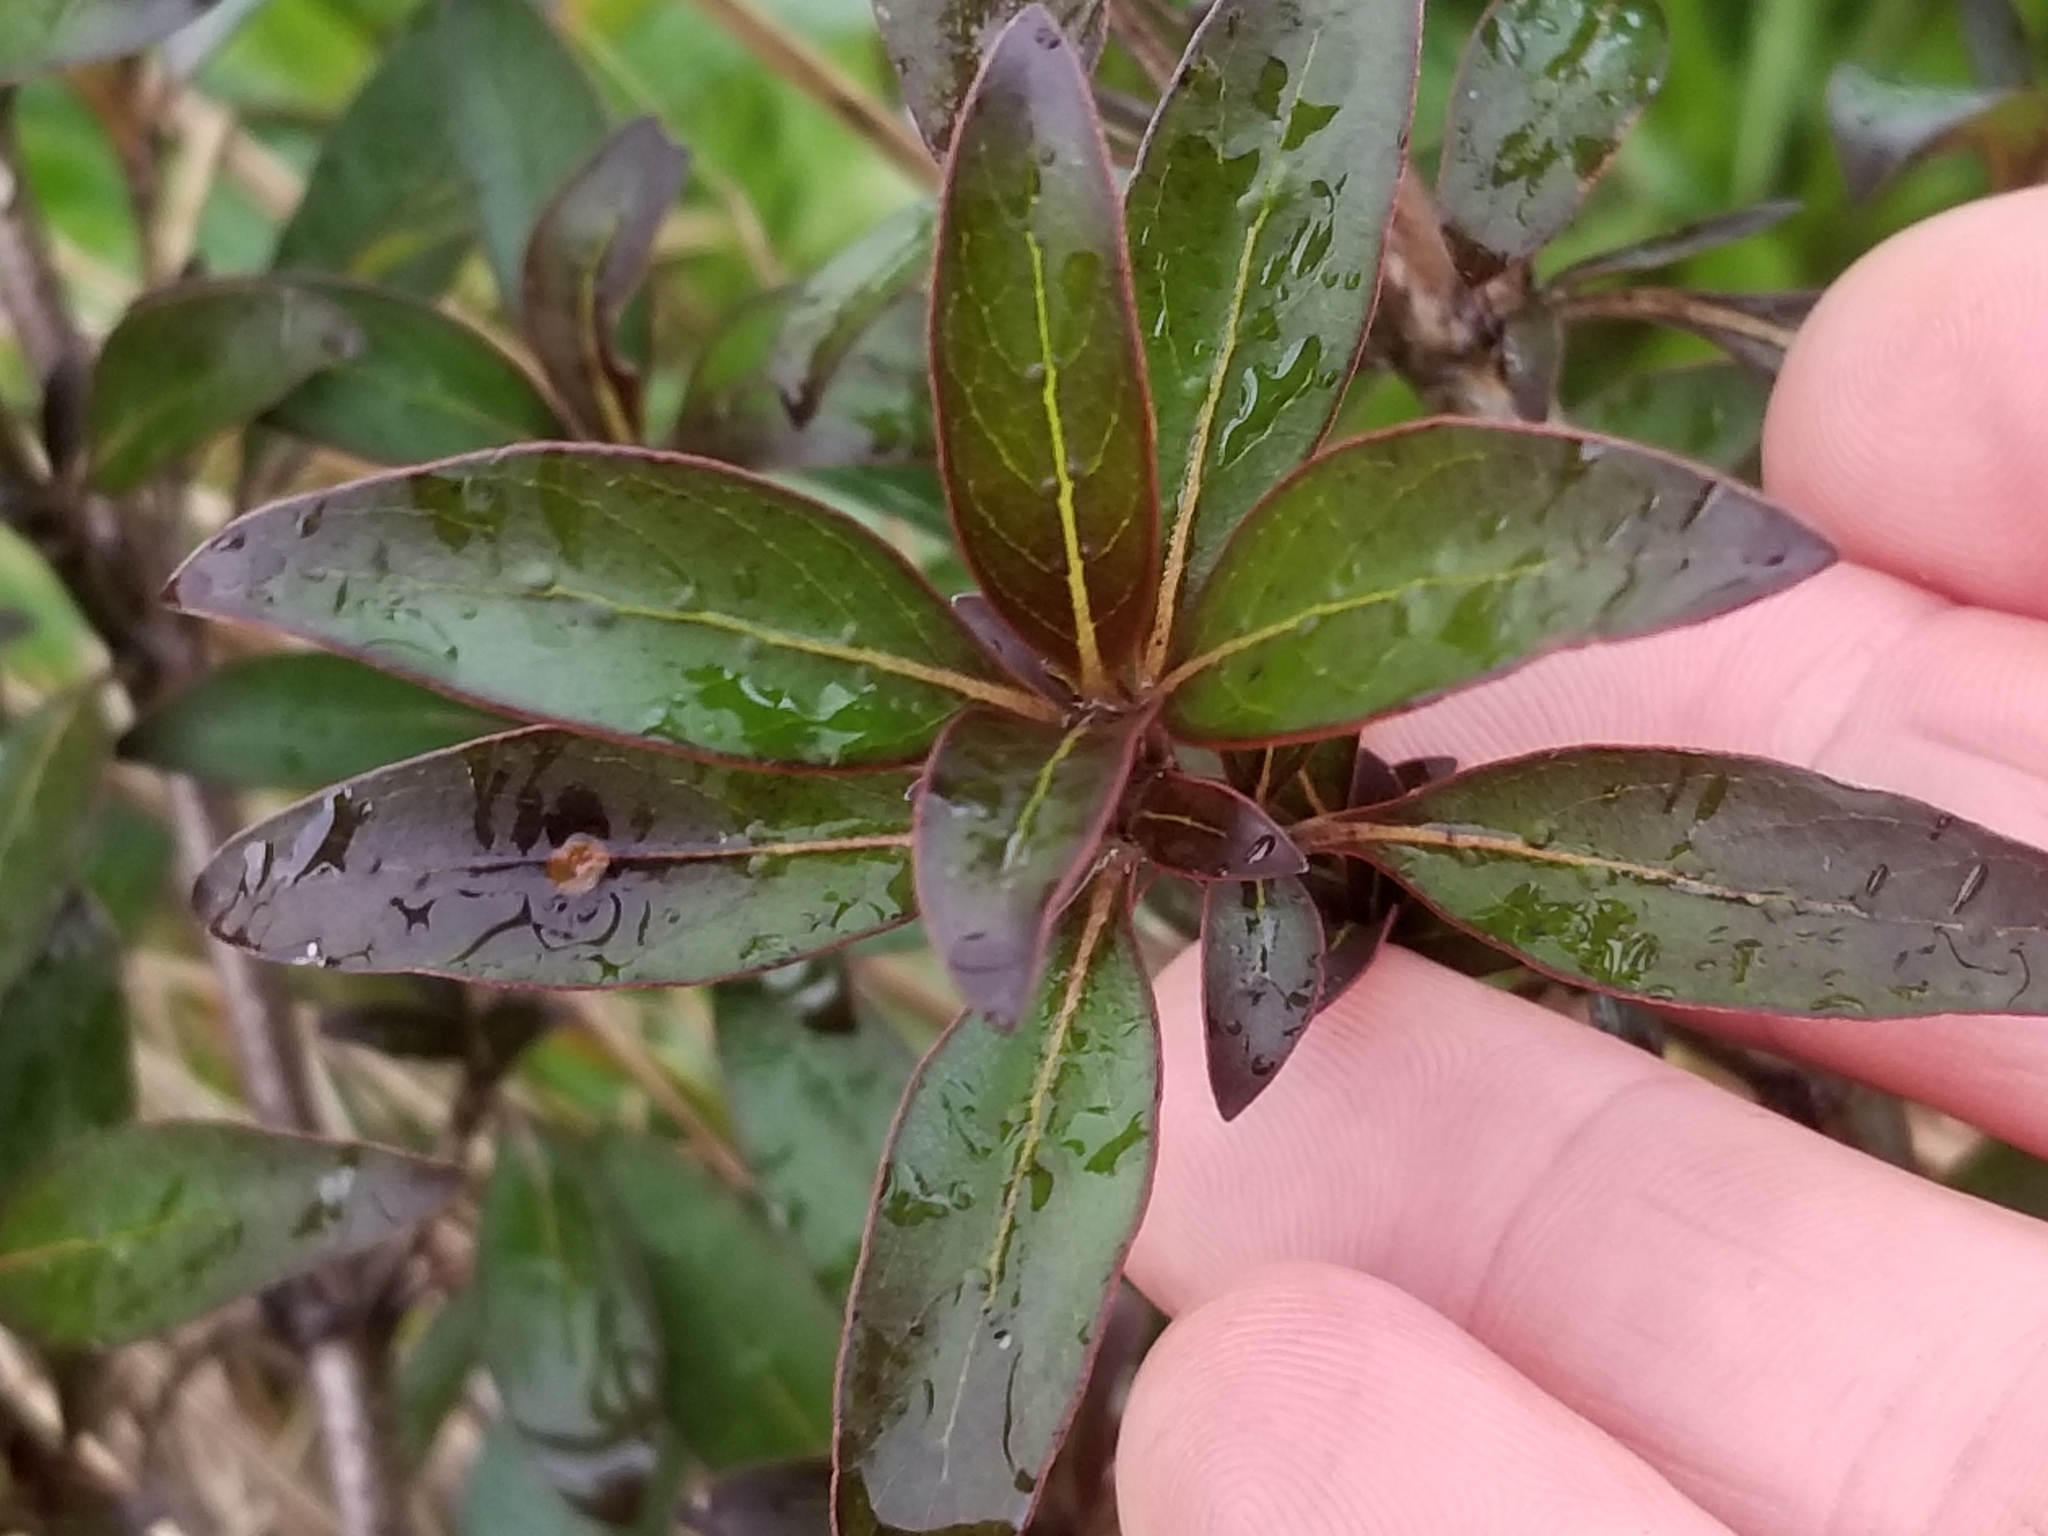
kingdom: Plantae
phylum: Tracheophyta
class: Magnoliopsida
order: Gentianales
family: Rubiaceae
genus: Coprosma
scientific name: Coprosma cunninghamii
